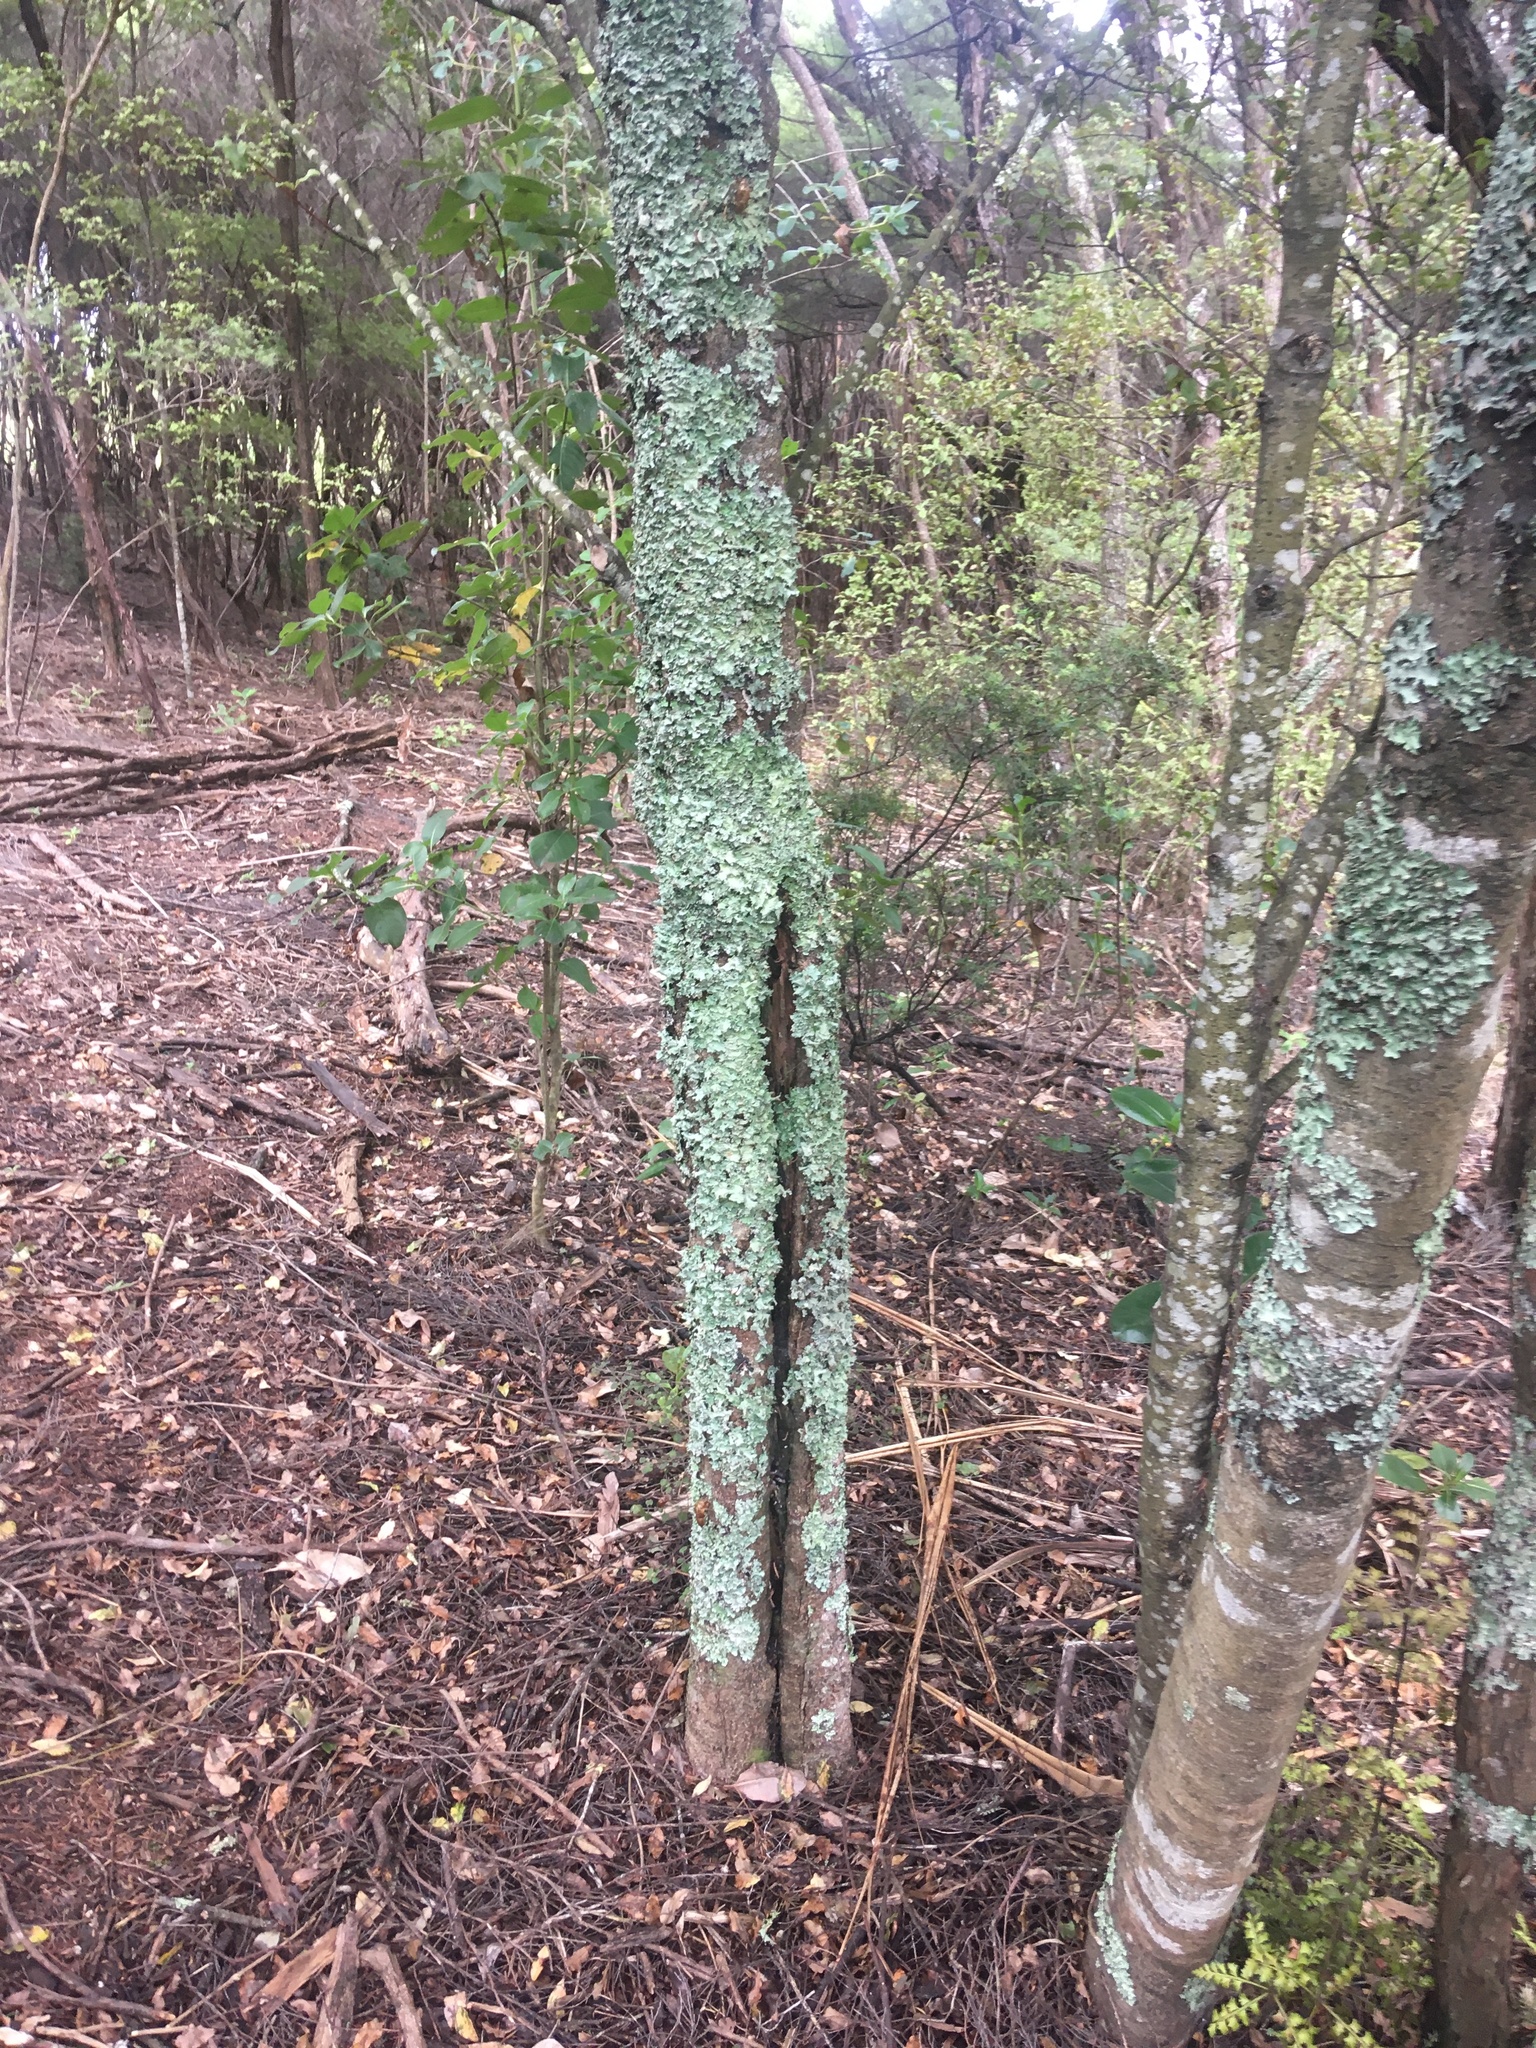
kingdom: Plantae
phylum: Tracheophyta
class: Magnoliopsida
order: Ericales
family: Primulaceae
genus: Myrsine
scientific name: Myrsine australis
